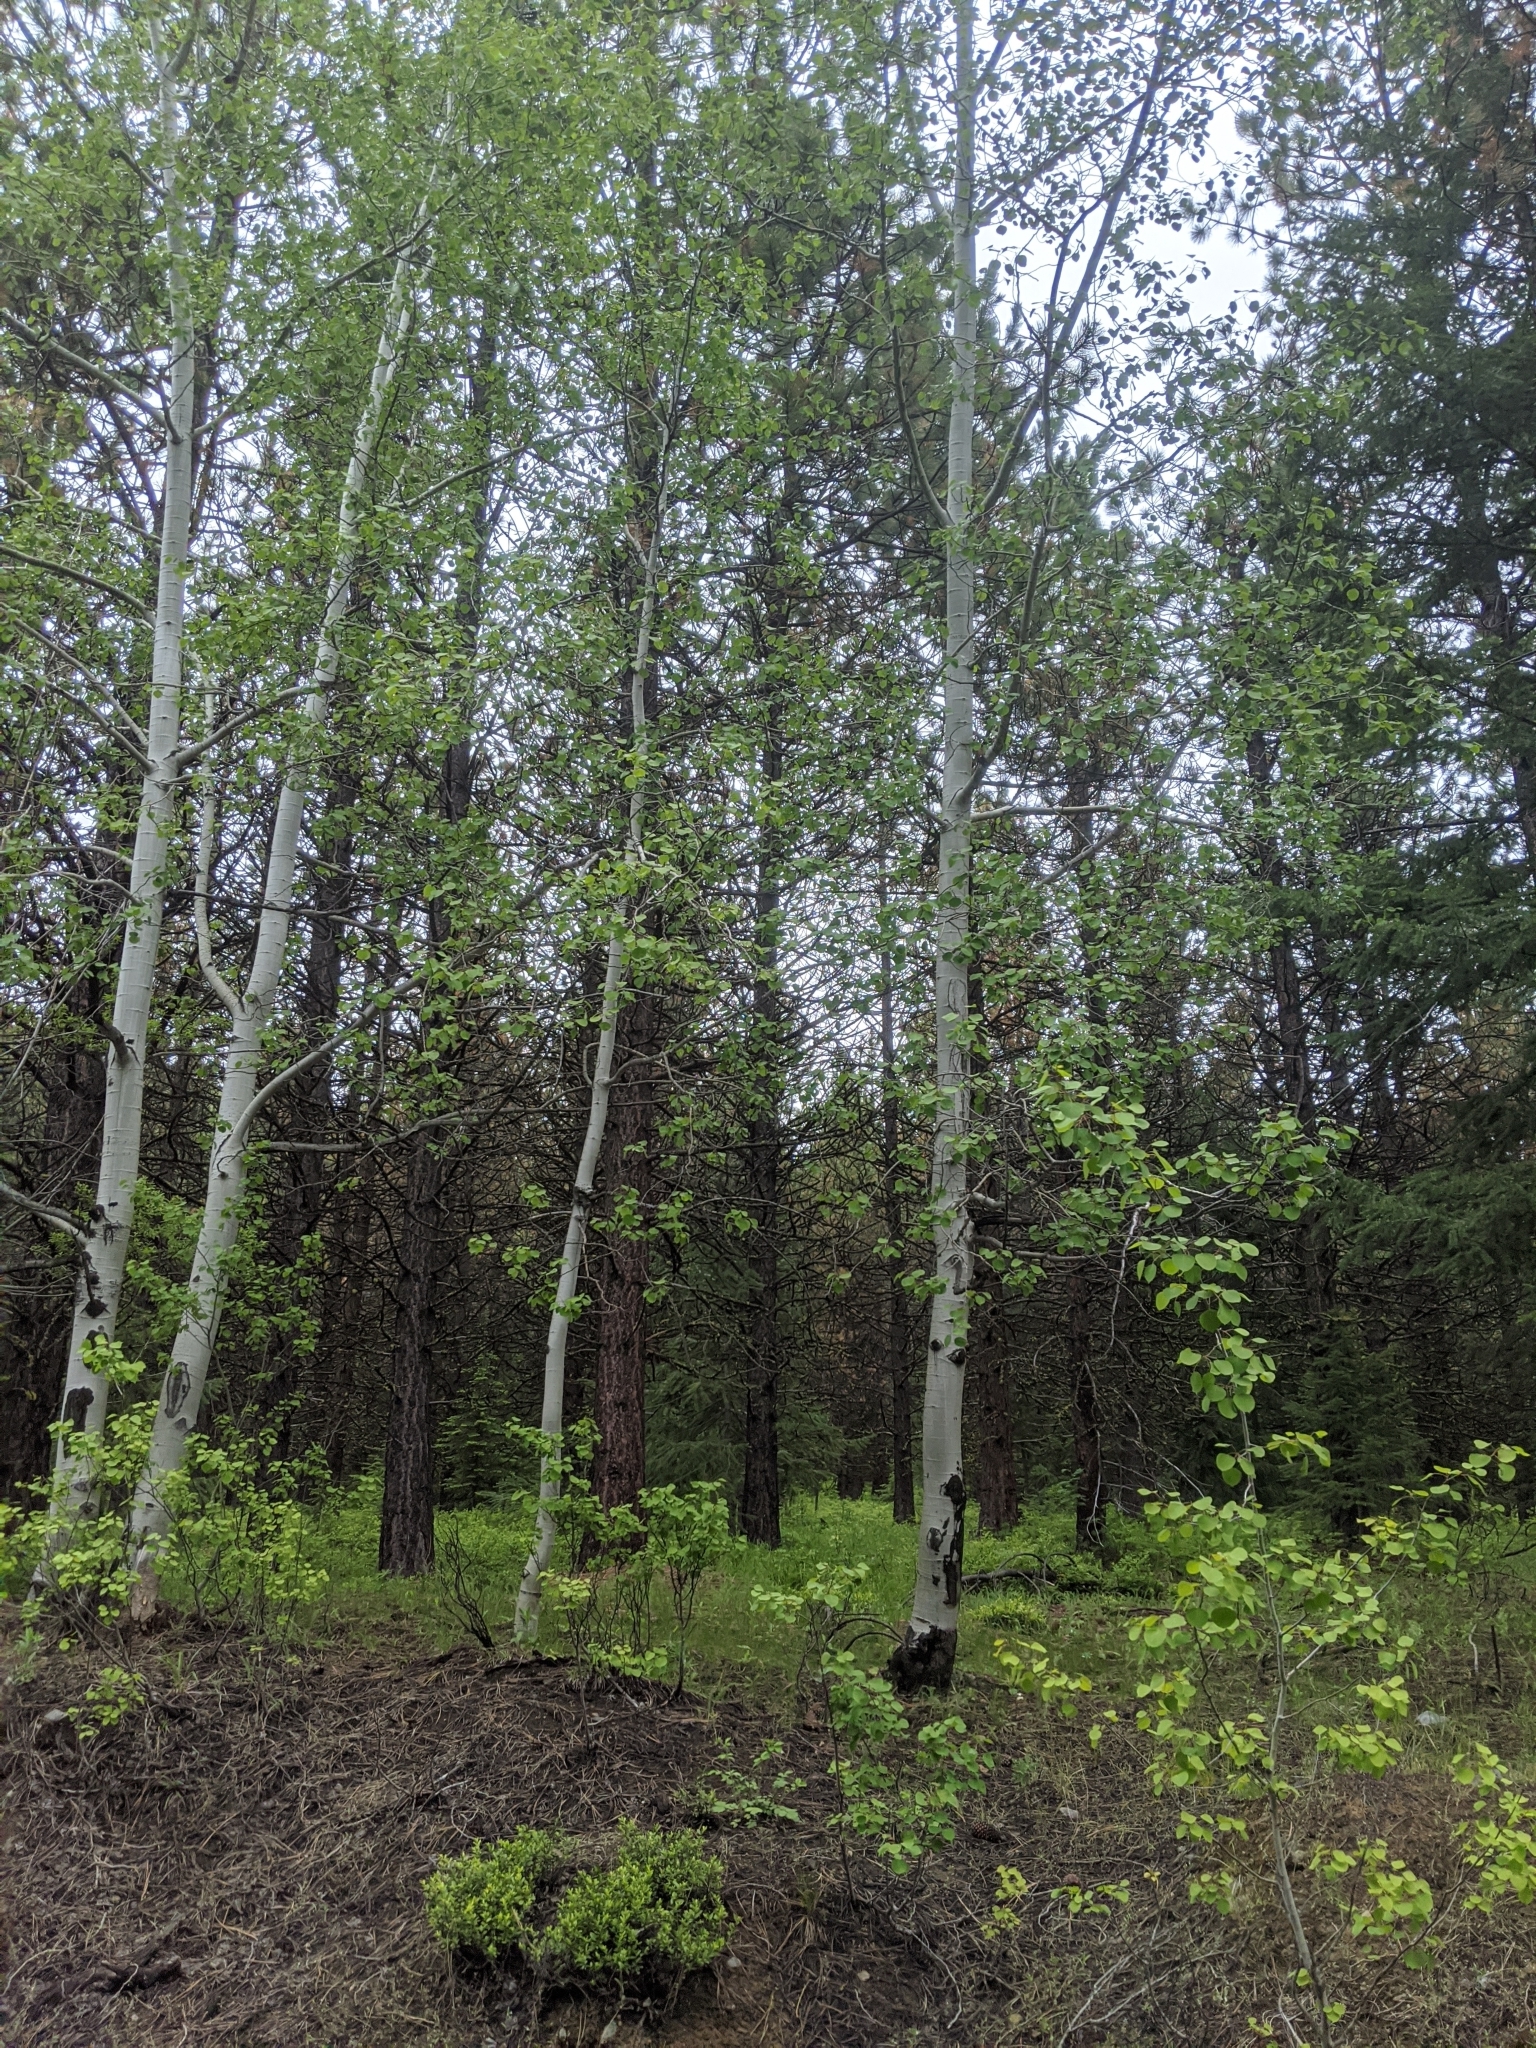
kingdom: Plantae
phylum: Tracheophyta
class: Magnoliopsida
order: Malpighiales
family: Salicaceae
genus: Populus
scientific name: Populus tremuloides
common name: Quaking aspen
